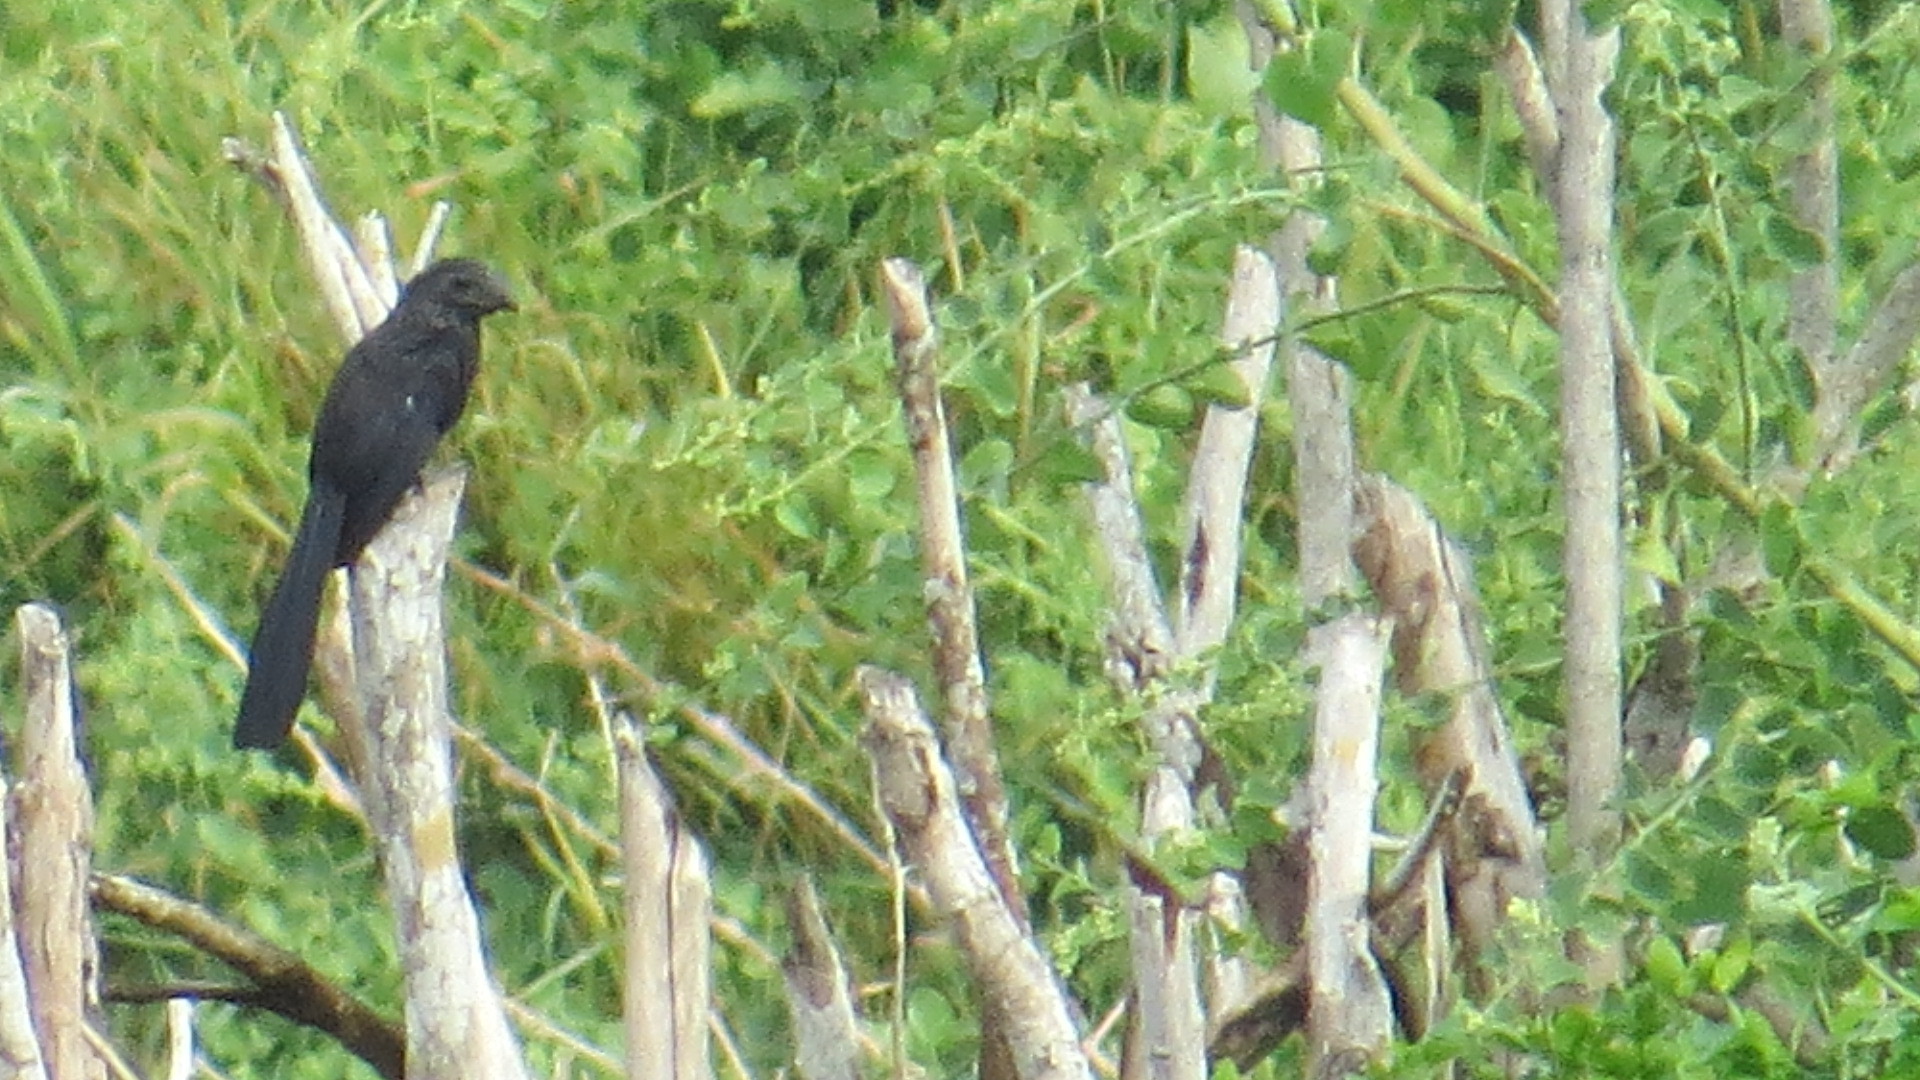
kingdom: Animalia
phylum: Chordata
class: Aves
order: Cuculiformes
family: Cuculidae
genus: Crotophaga
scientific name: Crotophaga sulcirostris
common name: Groove-billed ani
